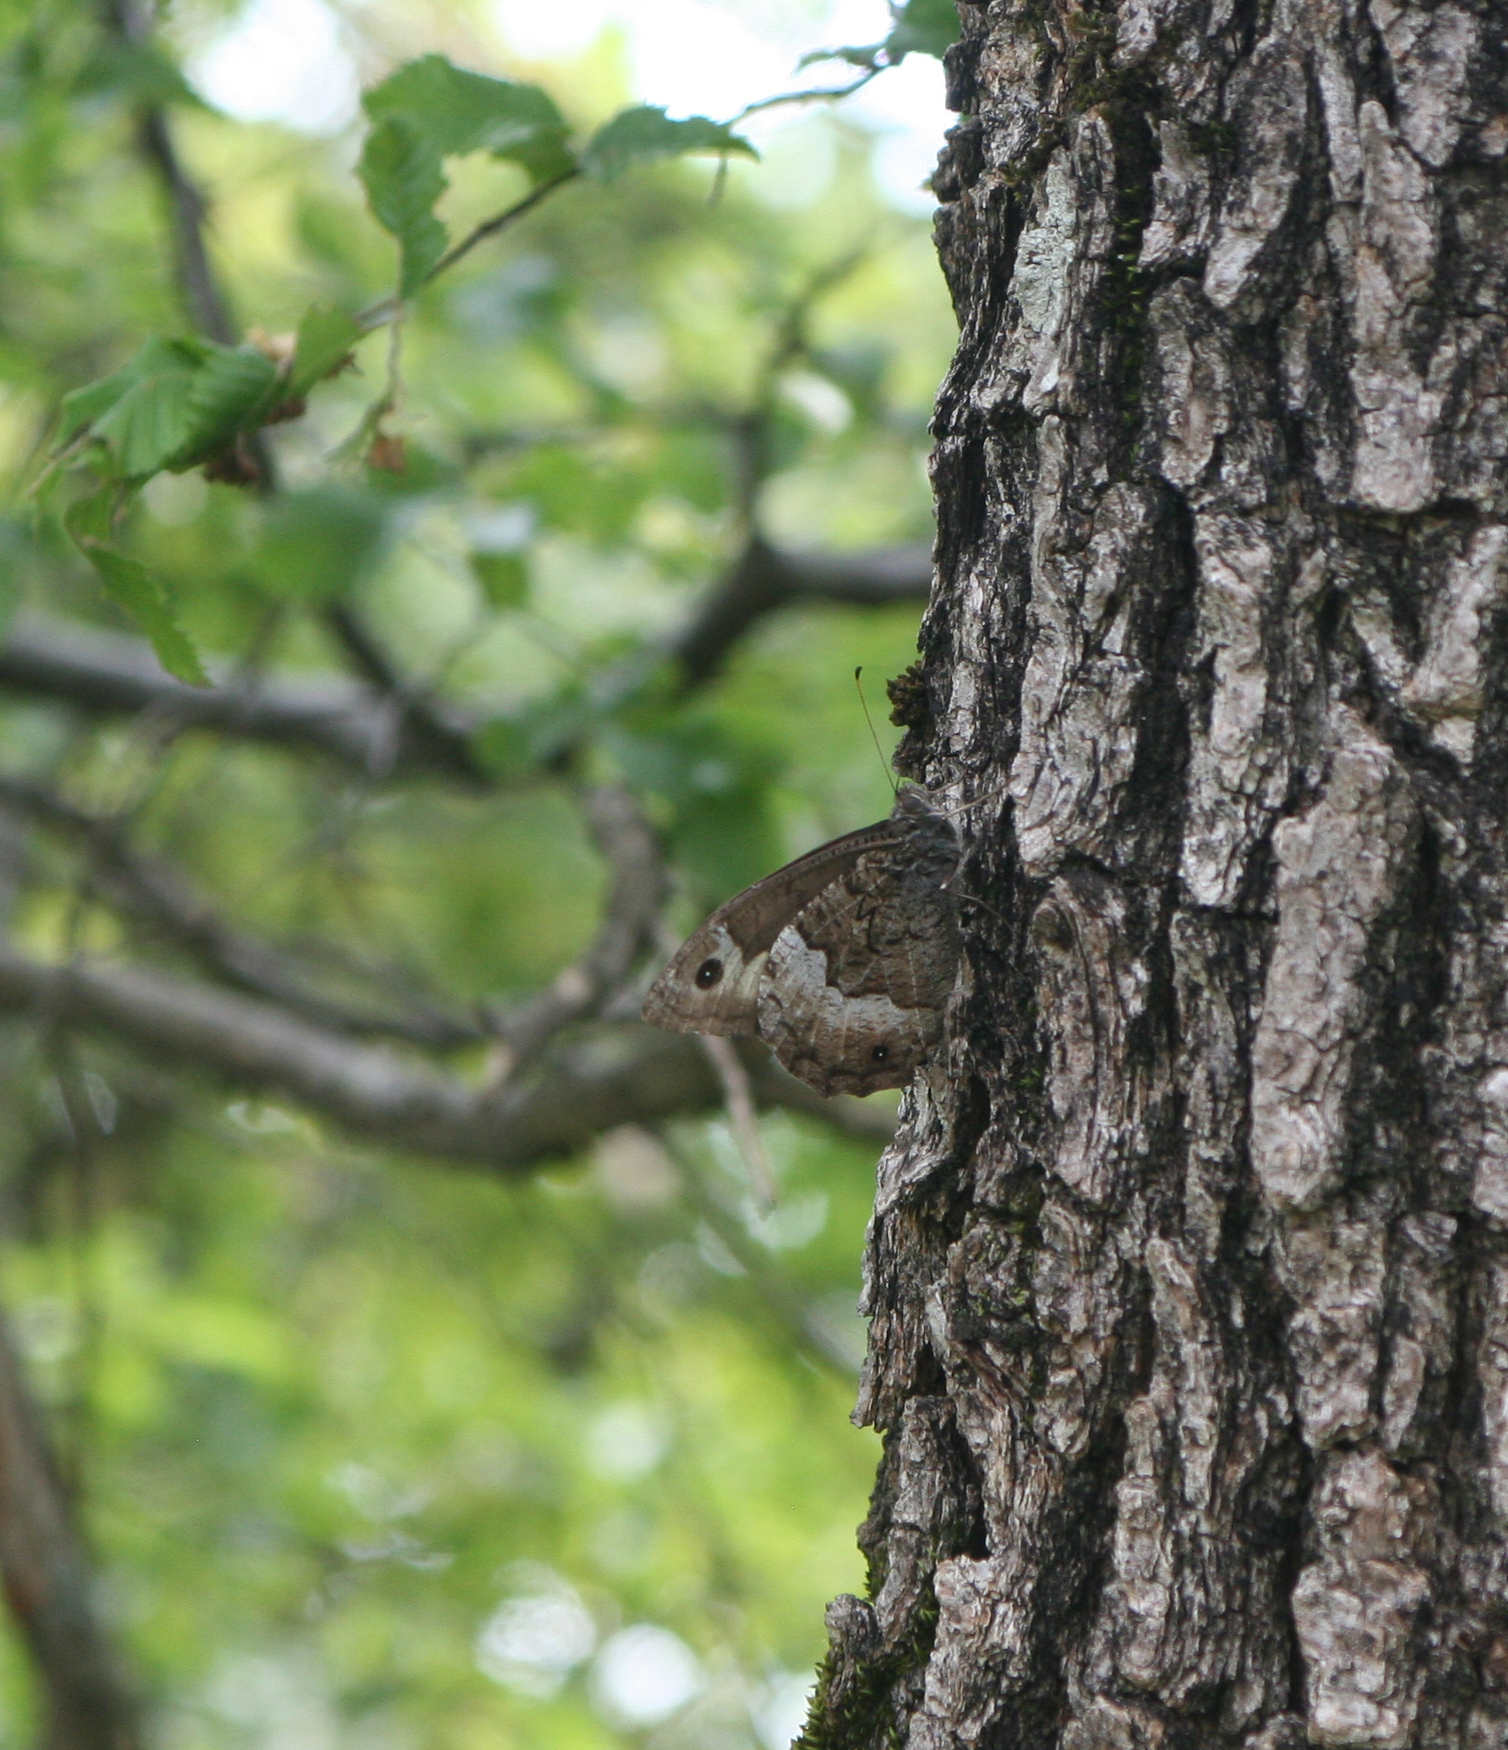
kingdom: Animalia
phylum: Arthropoda
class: Insecta
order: Lepidoptera
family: Nymphalidae
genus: Hipparchia
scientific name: Hipparchia fagi
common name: Woodland grayling
